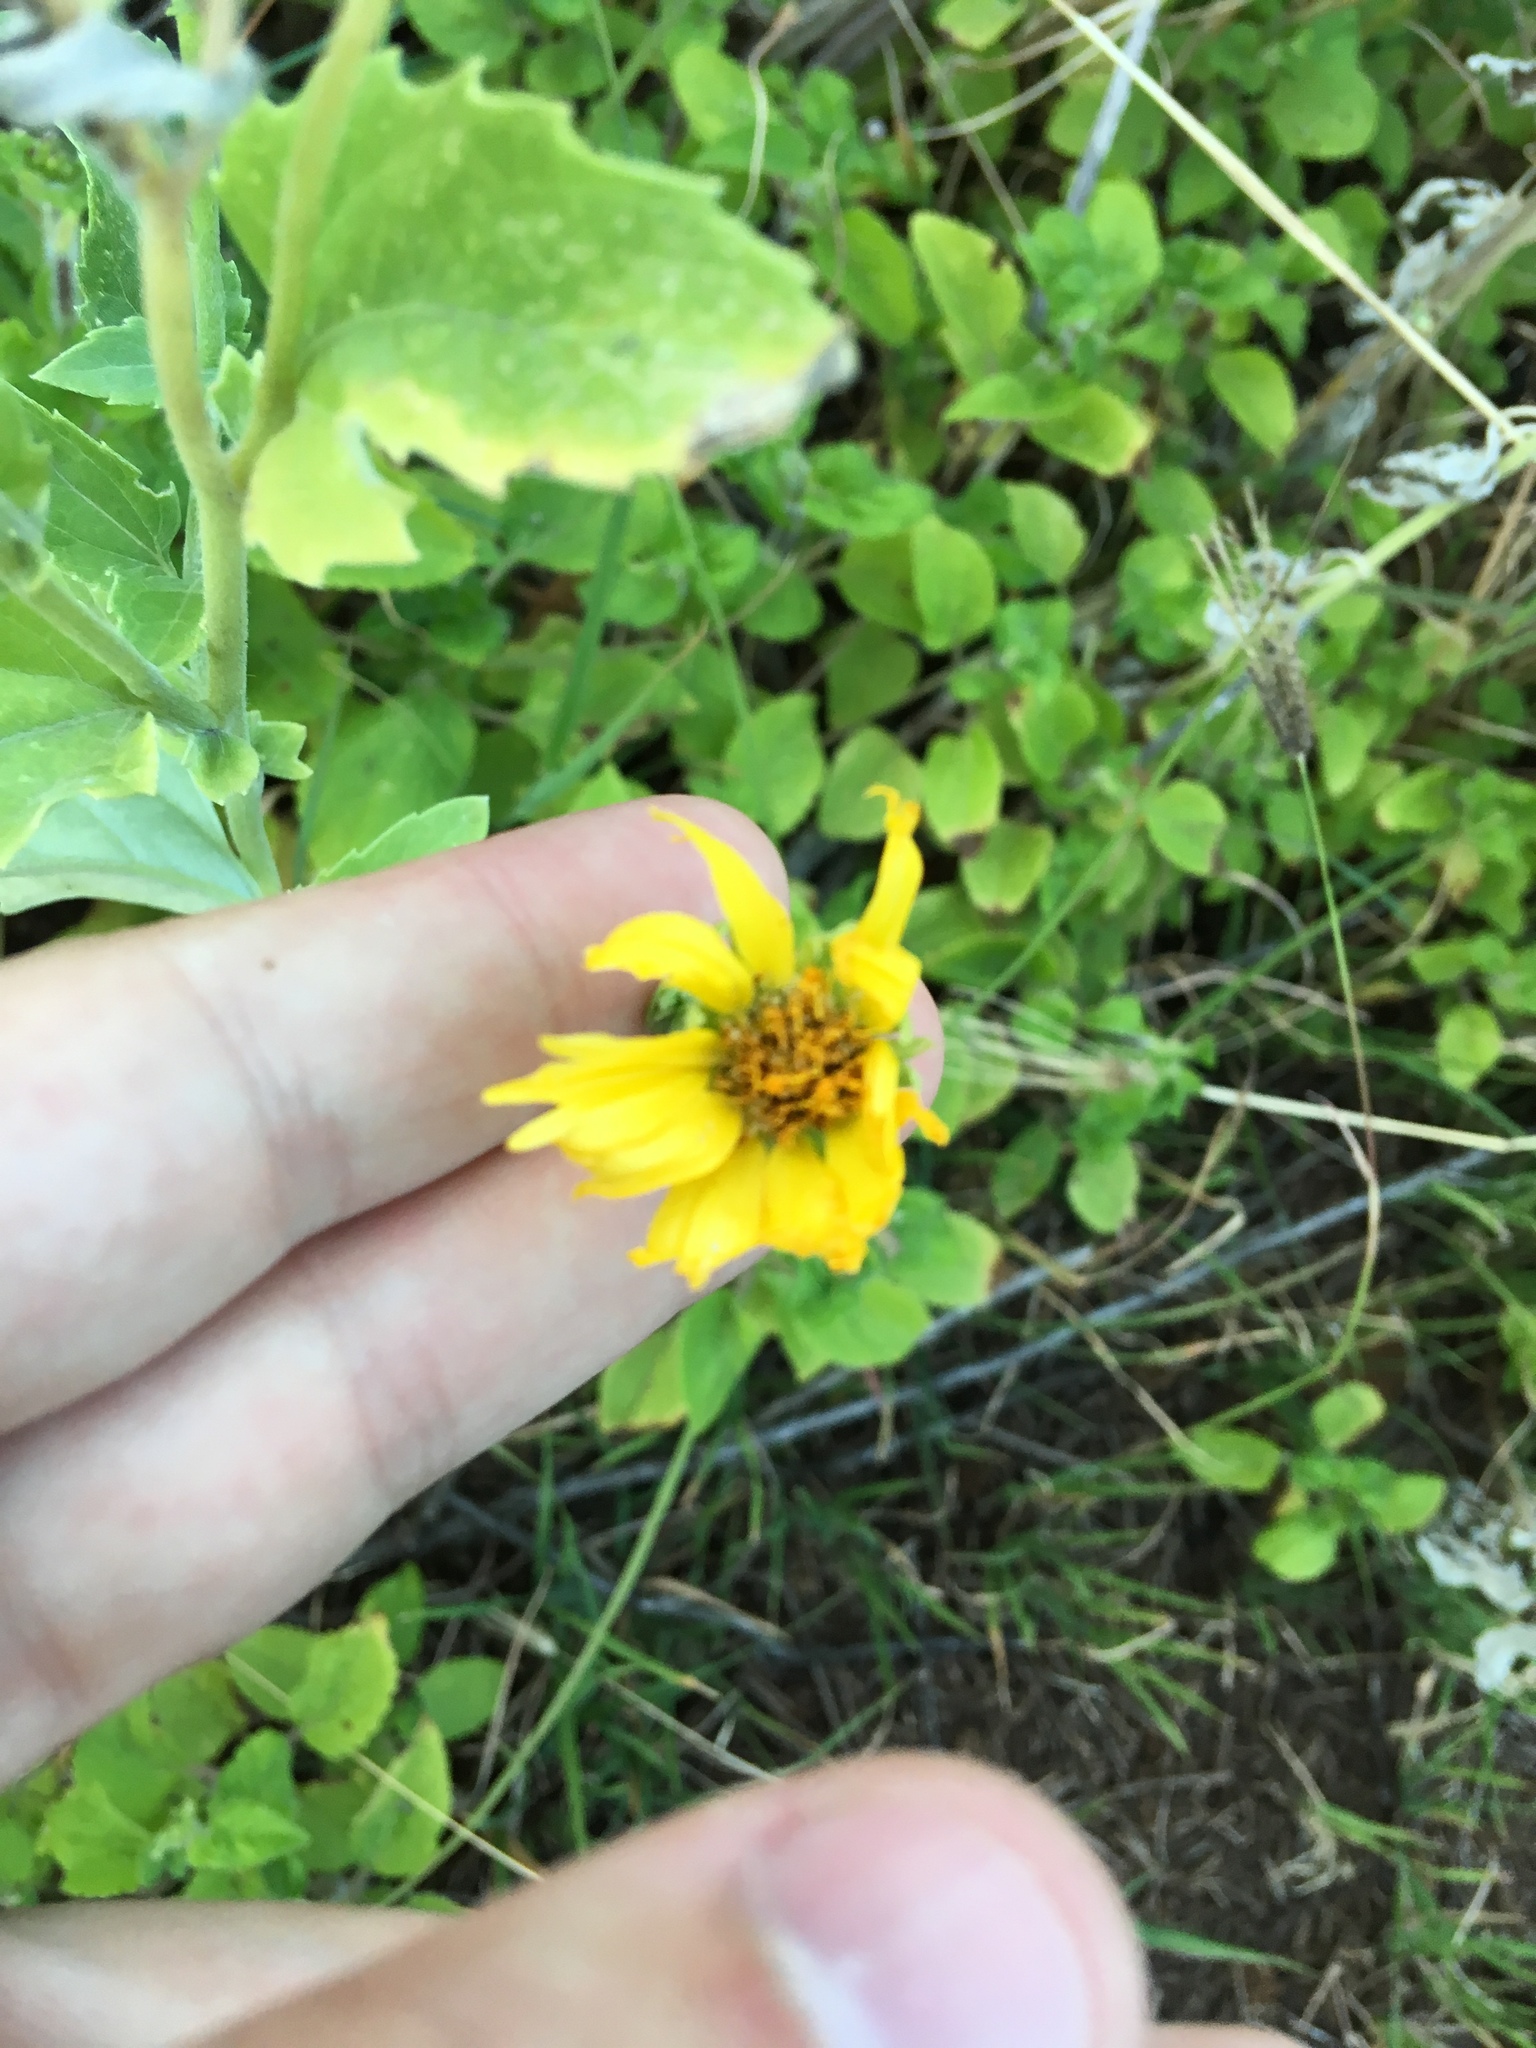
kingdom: Plantae
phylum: Tracheophyta
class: Magnoliopsida
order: Asterales
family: Asteraceae
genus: Verbesina
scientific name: Verbesina encelioides
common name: Golden crownbeard
